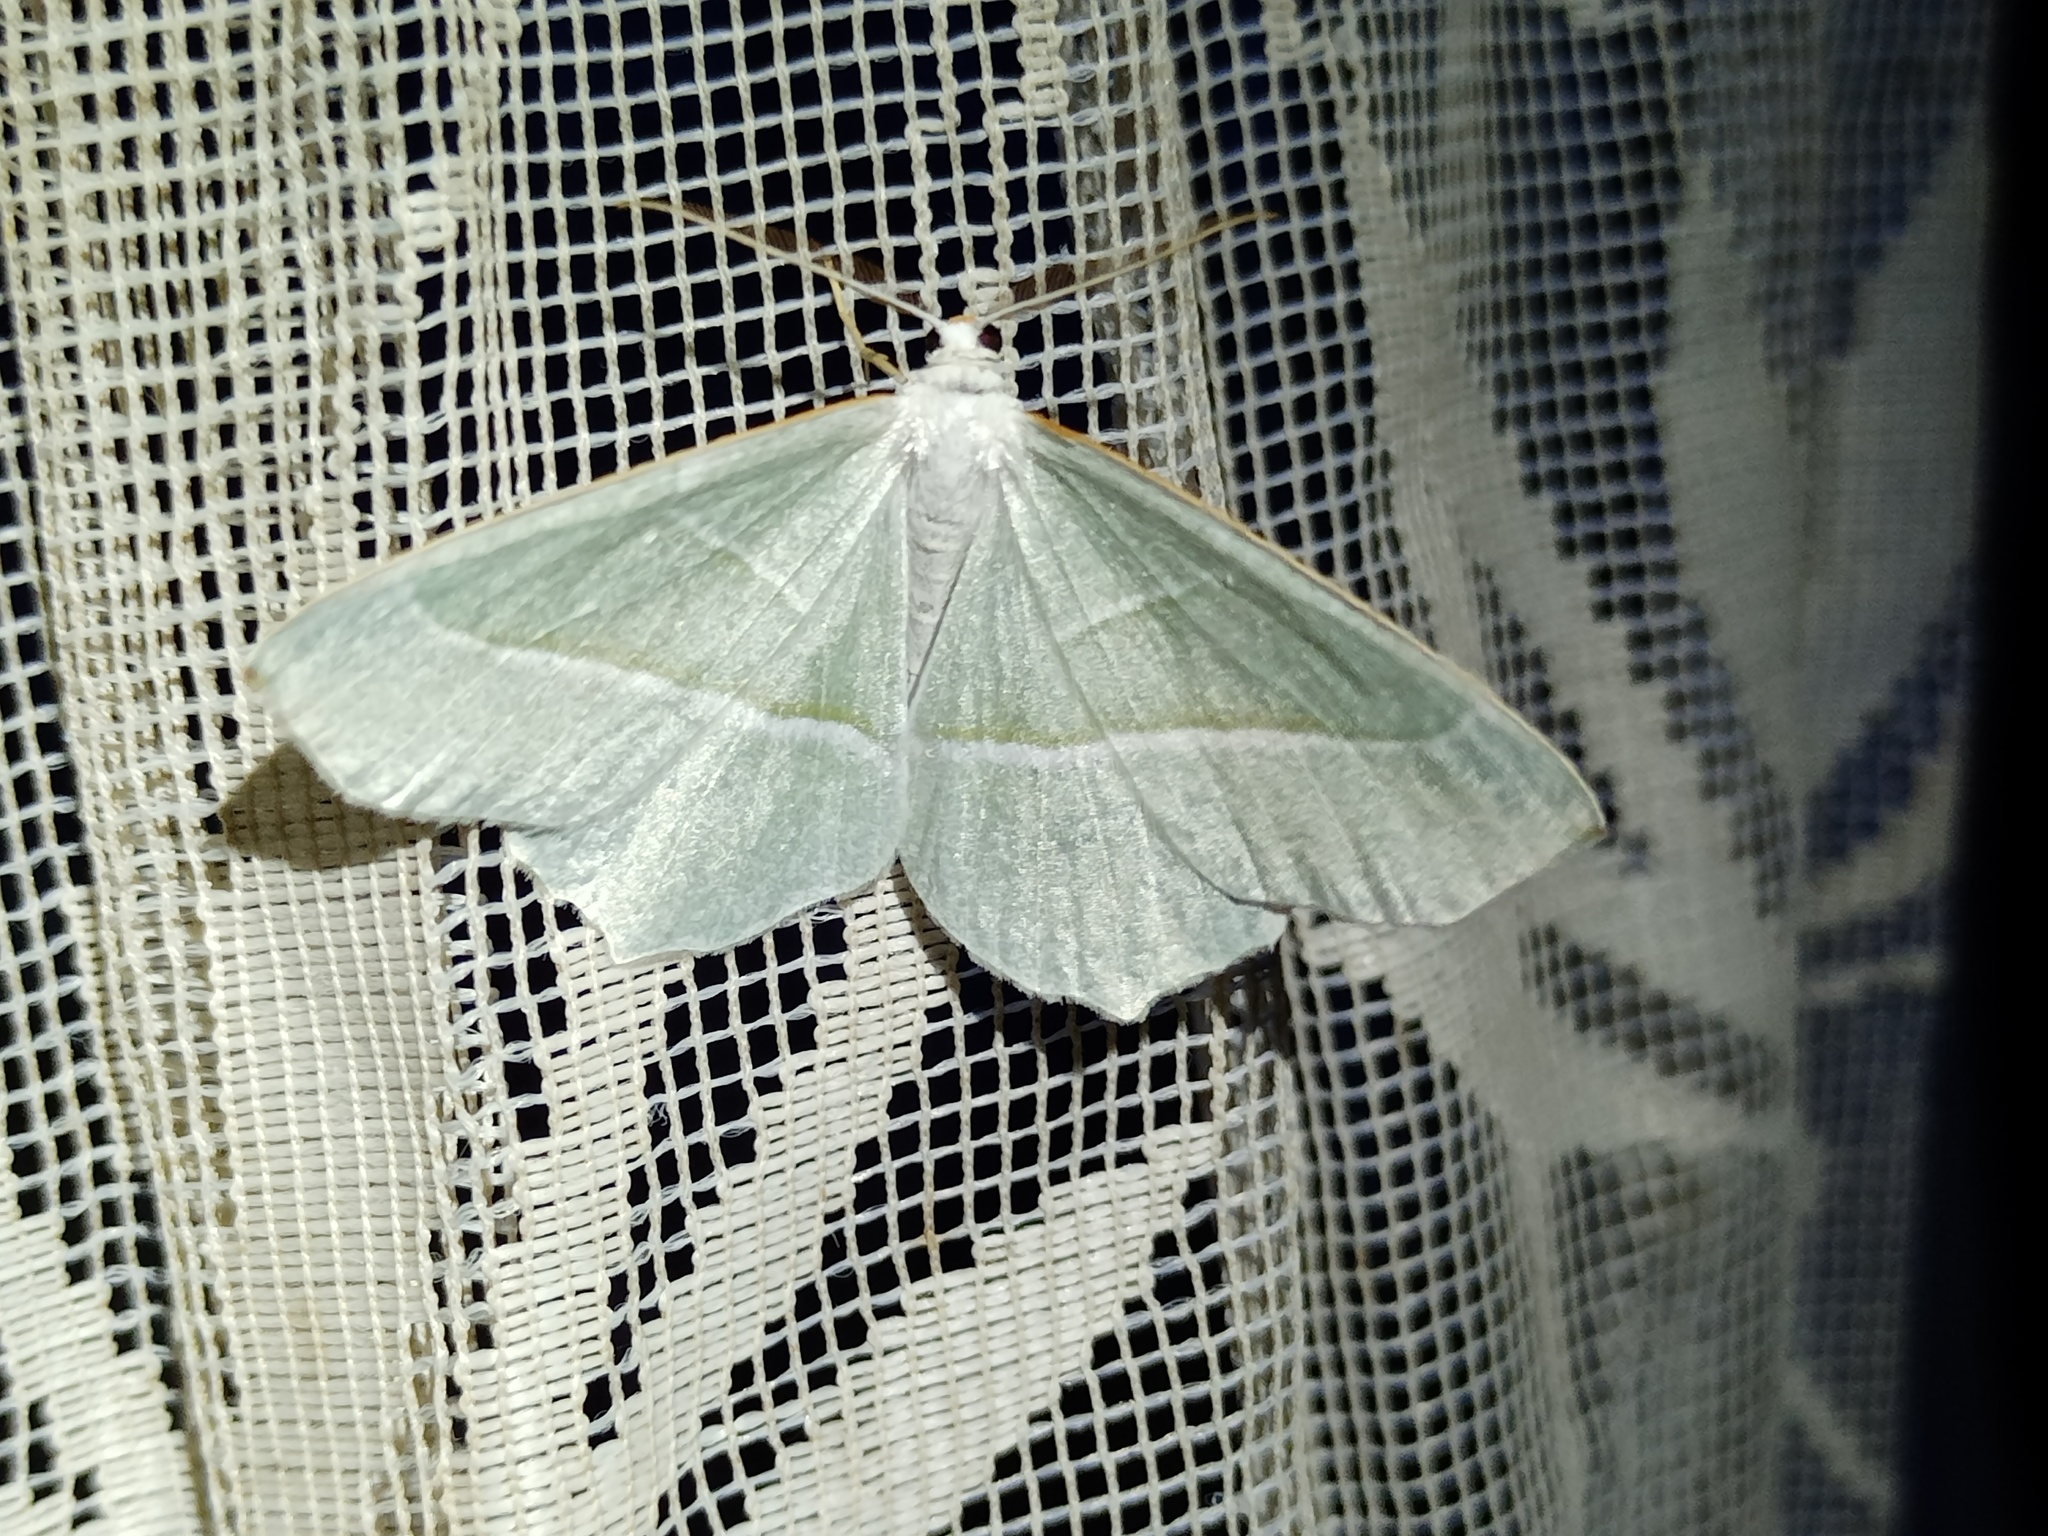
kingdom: Animalia
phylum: Arthropoda
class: Insecta
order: Lepidoptera
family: Geometridae
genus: Campaea
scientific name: Campaea margaritaria
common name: Light emerald
